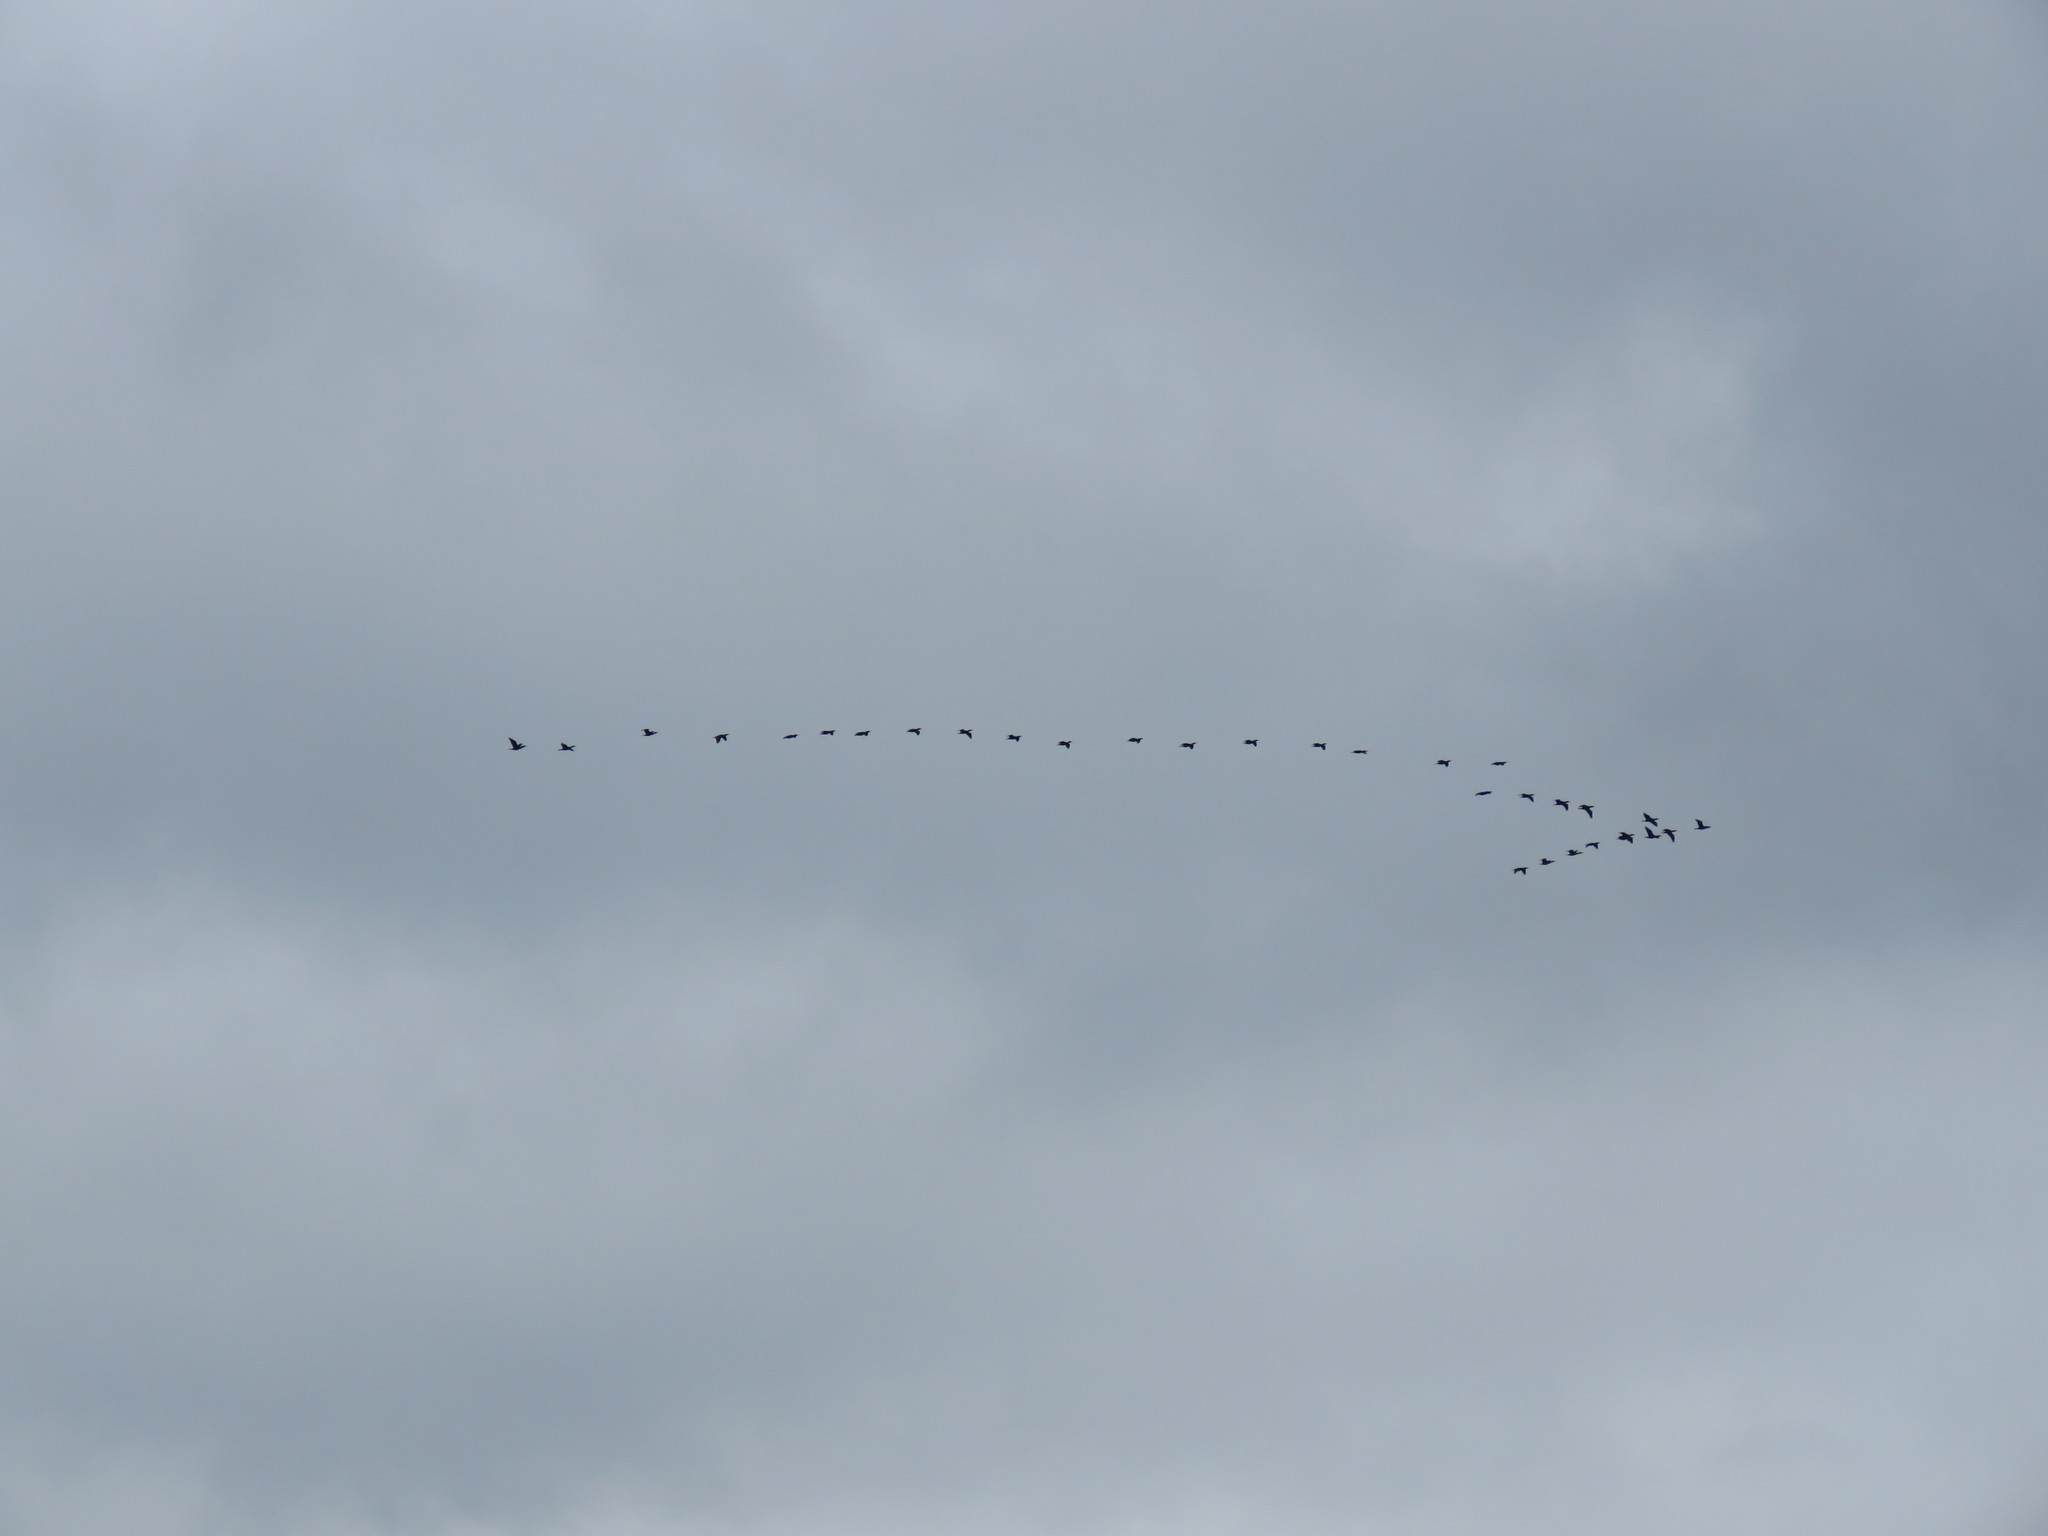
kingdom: Animalia
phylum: Chordata
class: Aves
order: Suliformes
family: Phalacrocoracidae
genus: Phalacrocorax
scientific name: Phalacrocorax auritus
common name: Double-crested cormorant
